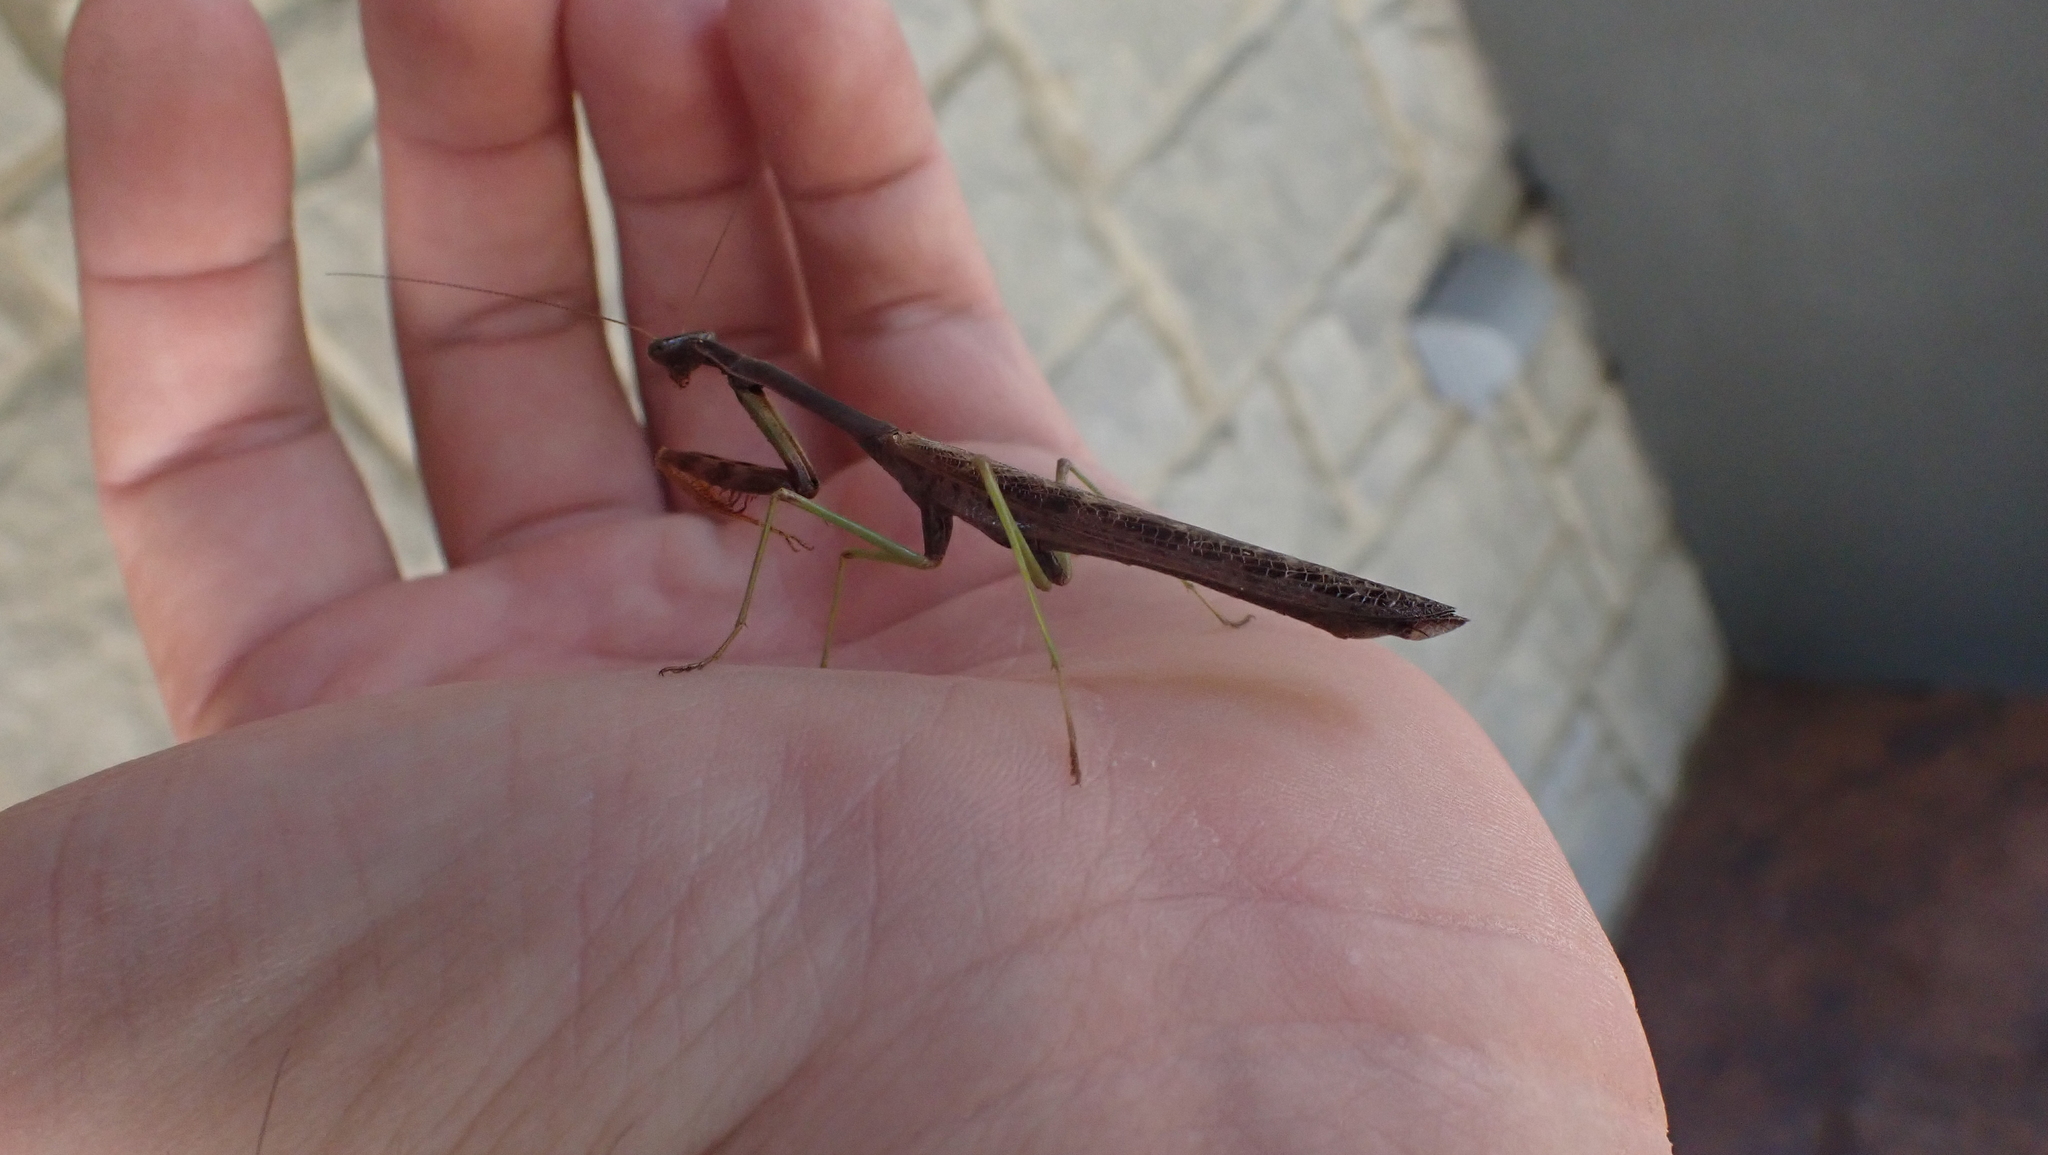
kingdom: Animalia
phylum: Arthropoda
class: Insecta
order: Mantodea
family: Mantidae
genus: Stagmomantis
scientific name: Stagmomantis carolina
